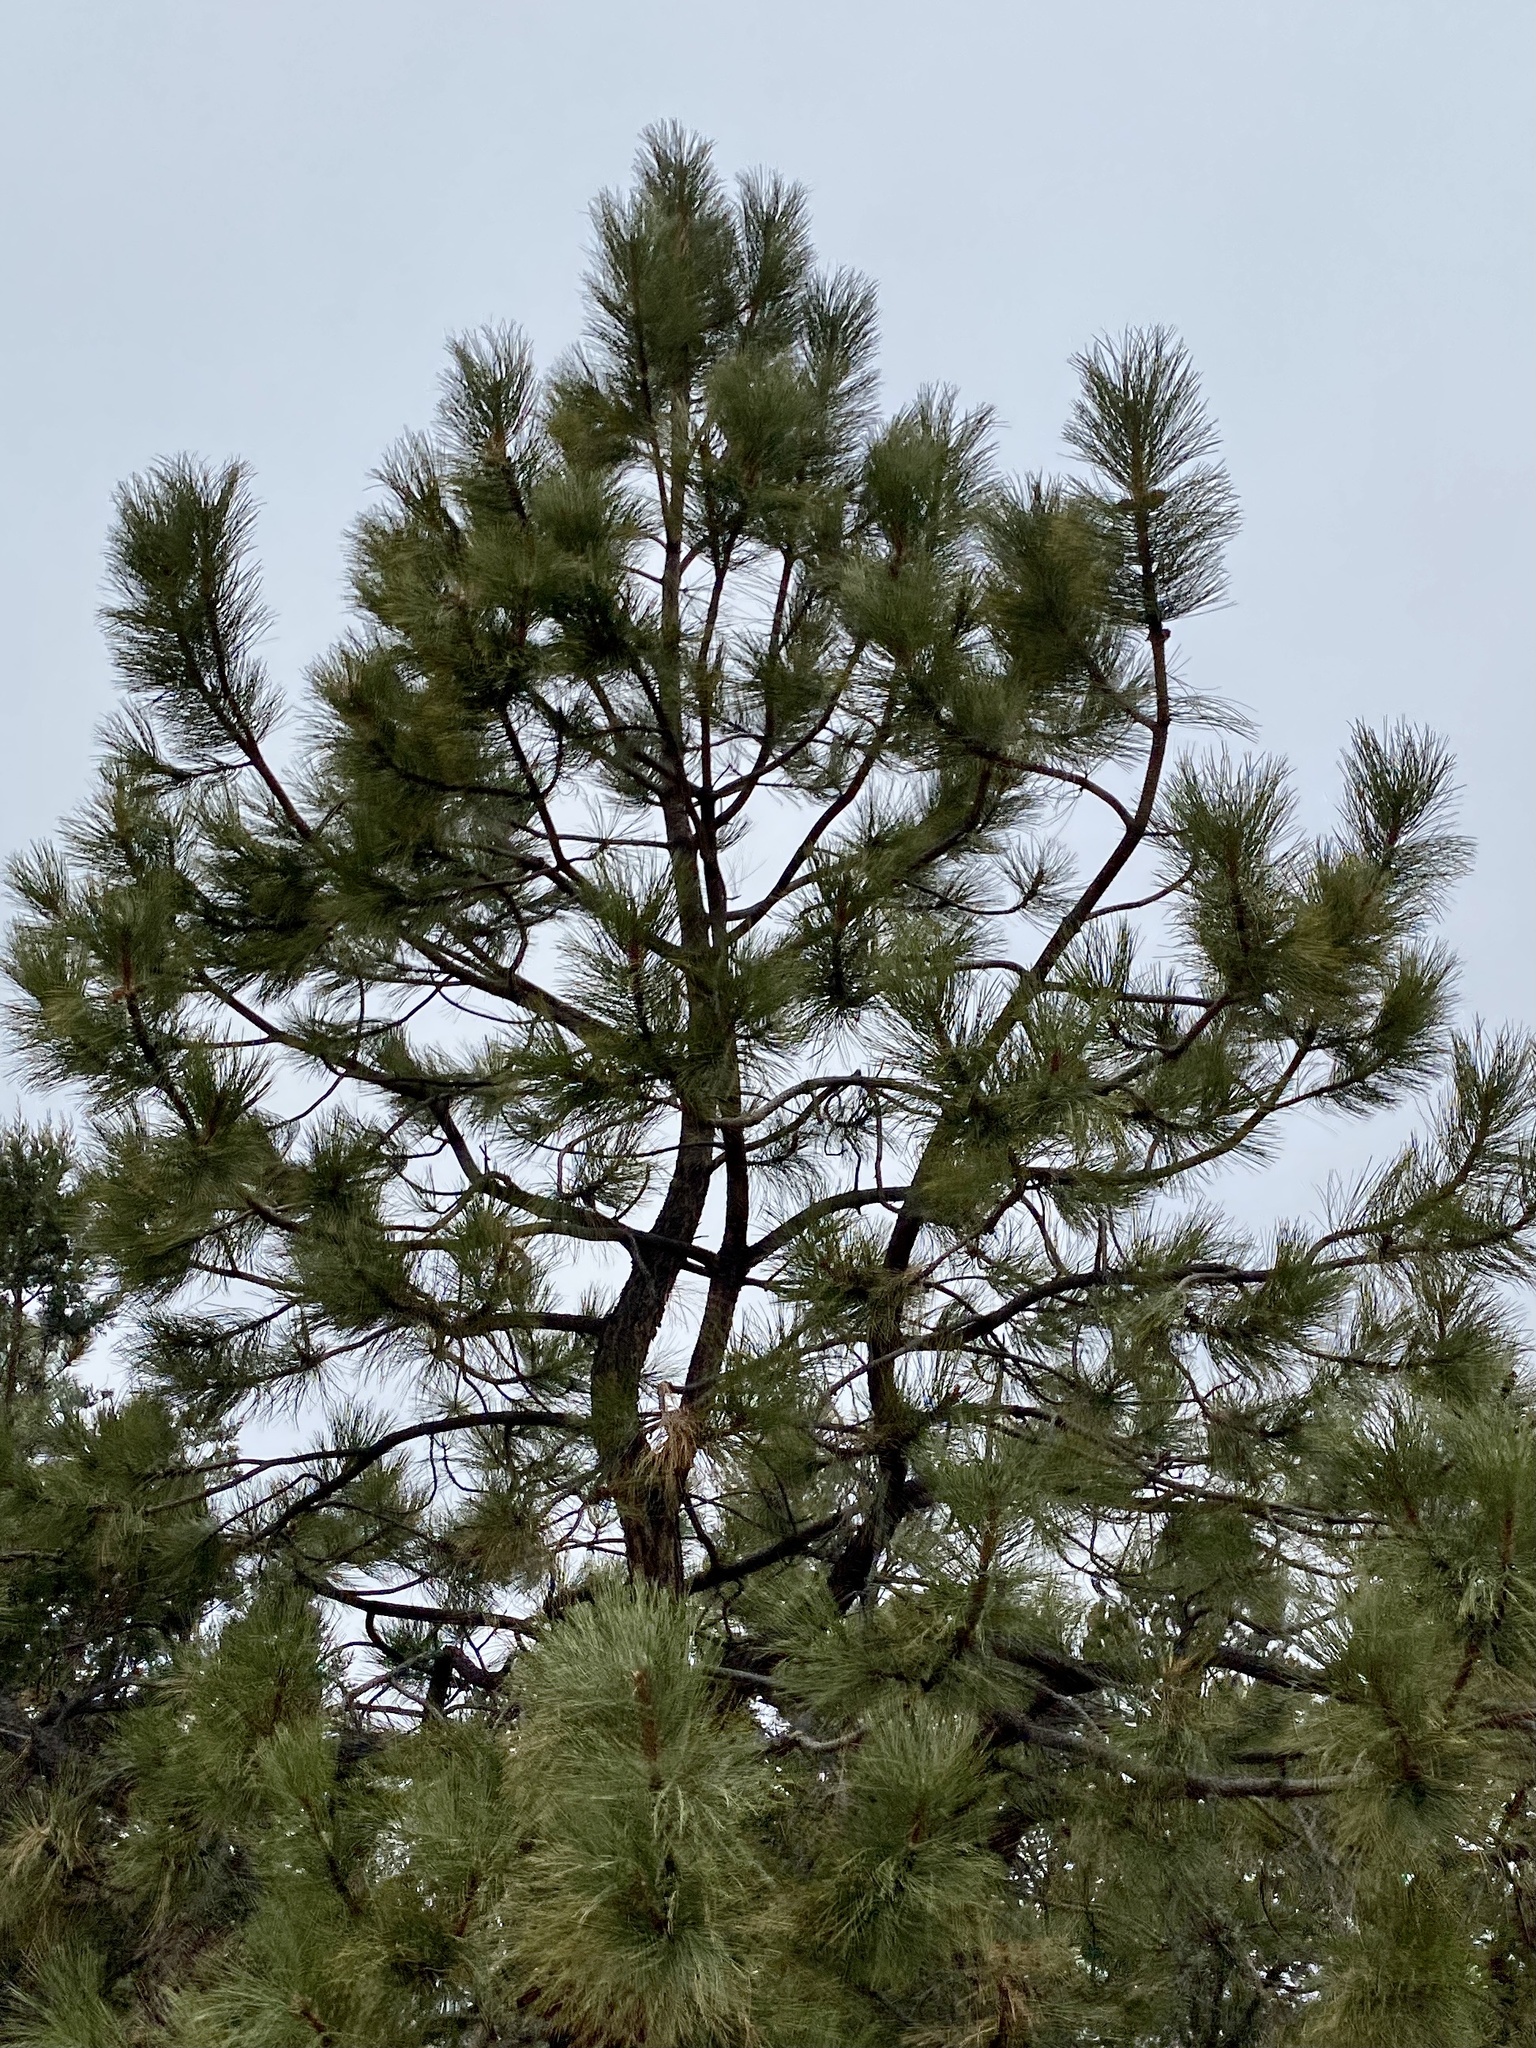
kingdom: Plantae
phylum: Tracheophyta
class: Pinopsida
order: Pinales
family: Pinaceae
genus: Pinus
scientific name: Pinus ponderosa
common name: Western yellow-pine
